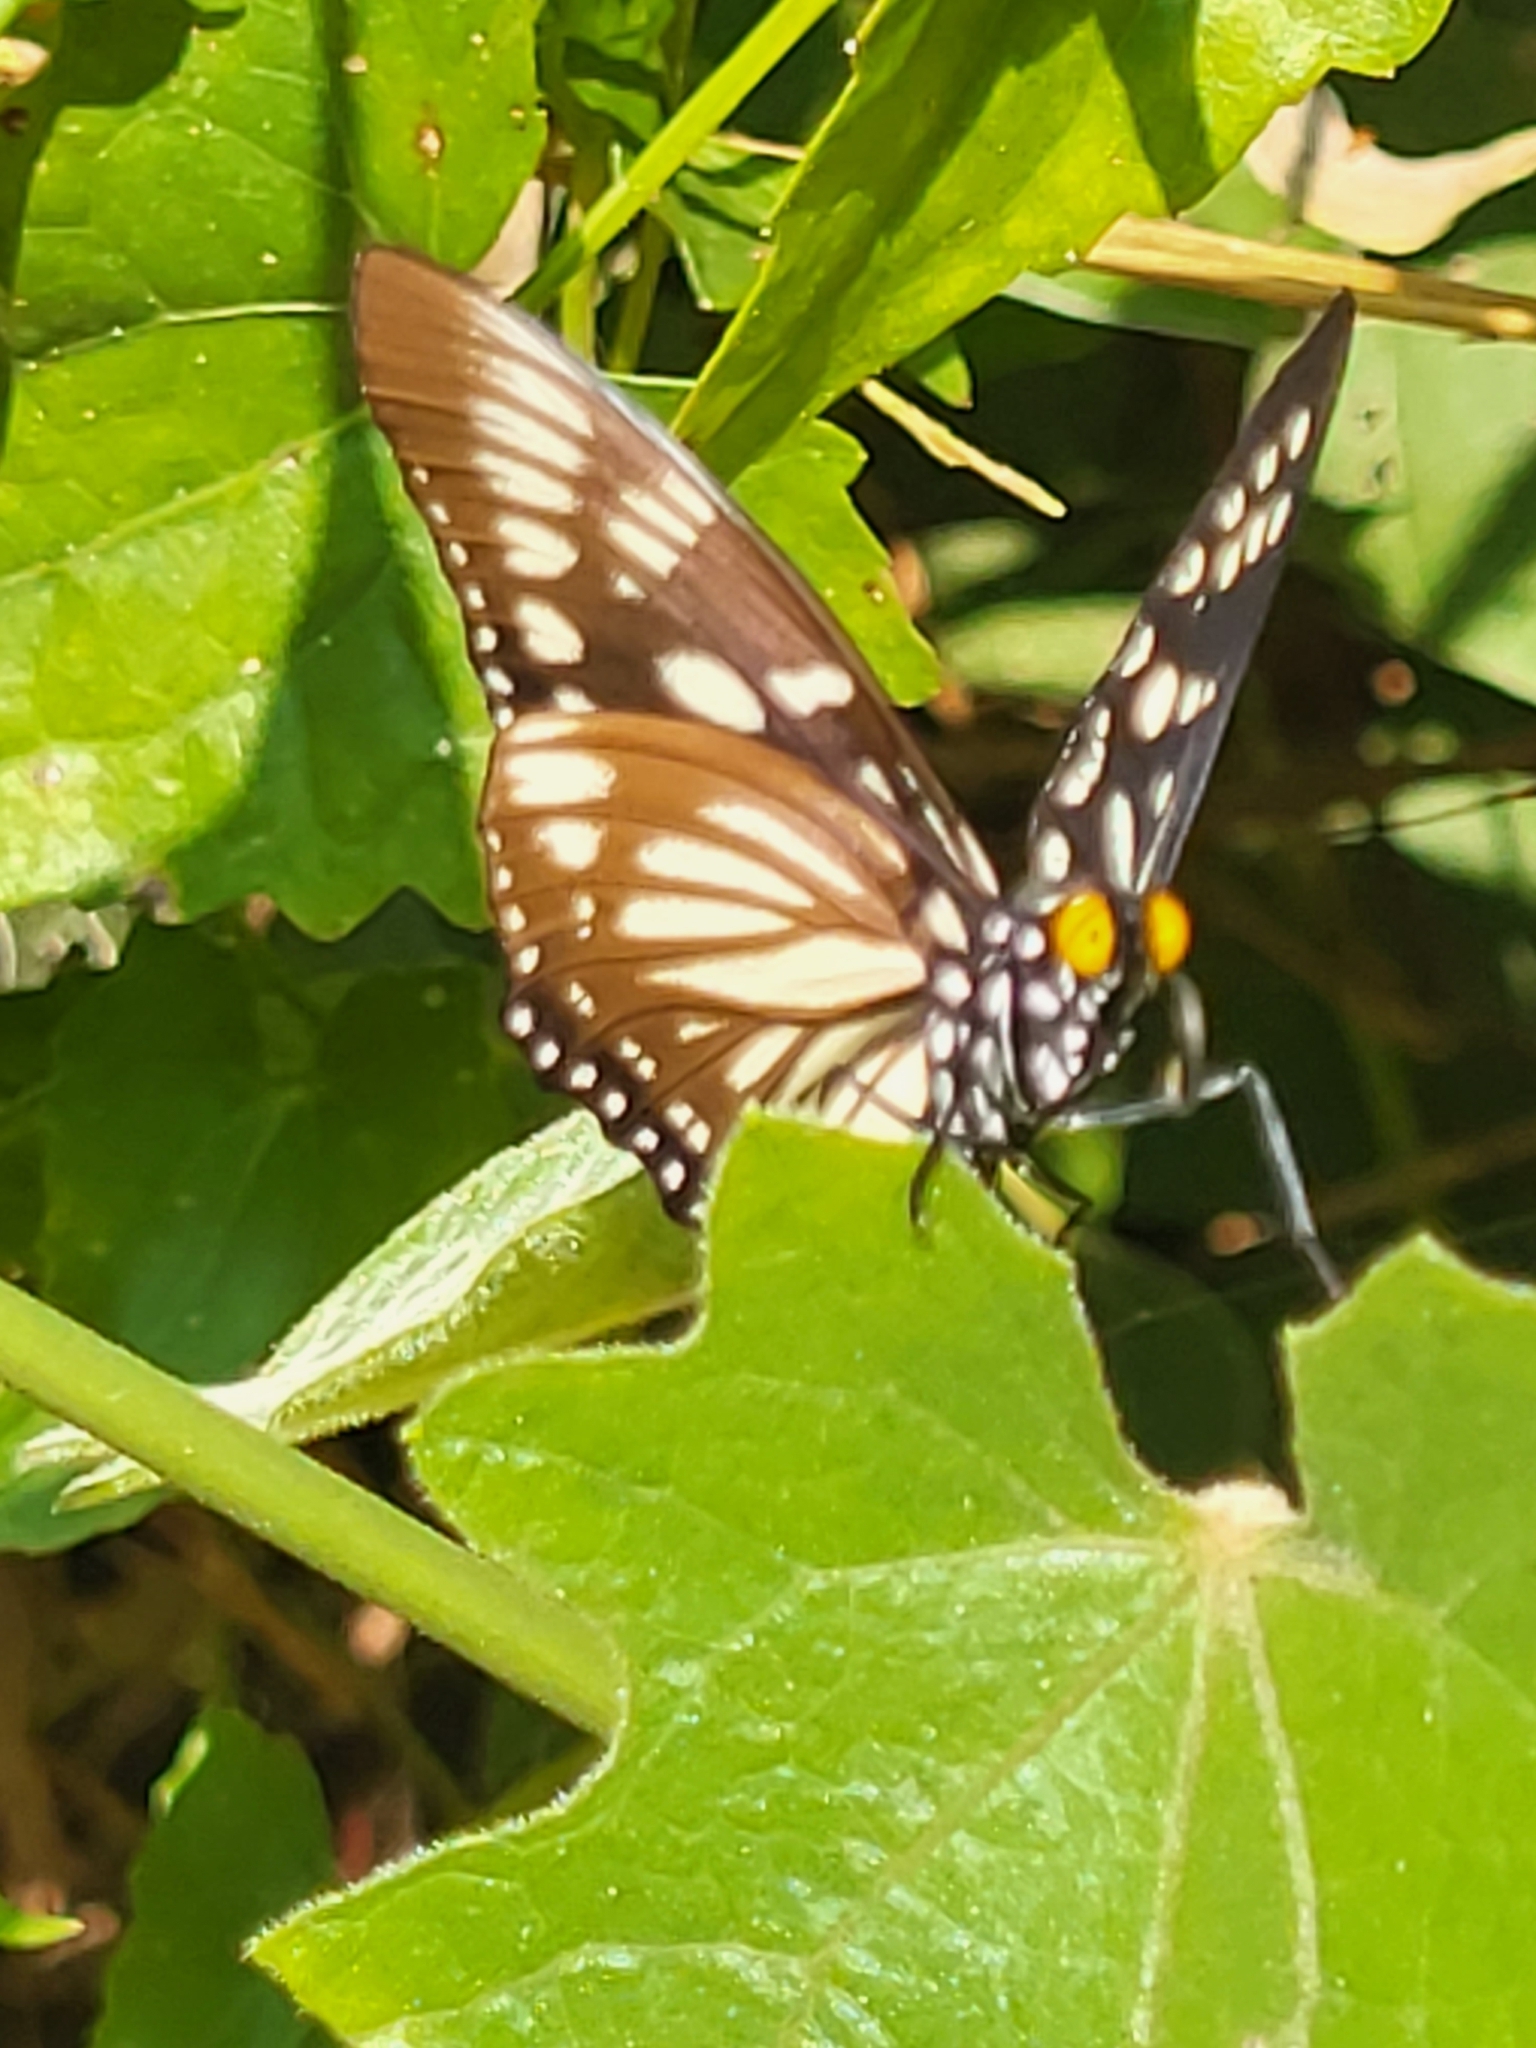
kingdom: Animalia
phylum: Arthropoda
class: Insecta
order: Lepidoptera
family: Nymphalidae
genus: Euripus
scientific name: Euripus nyctelius
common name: Courtesan
